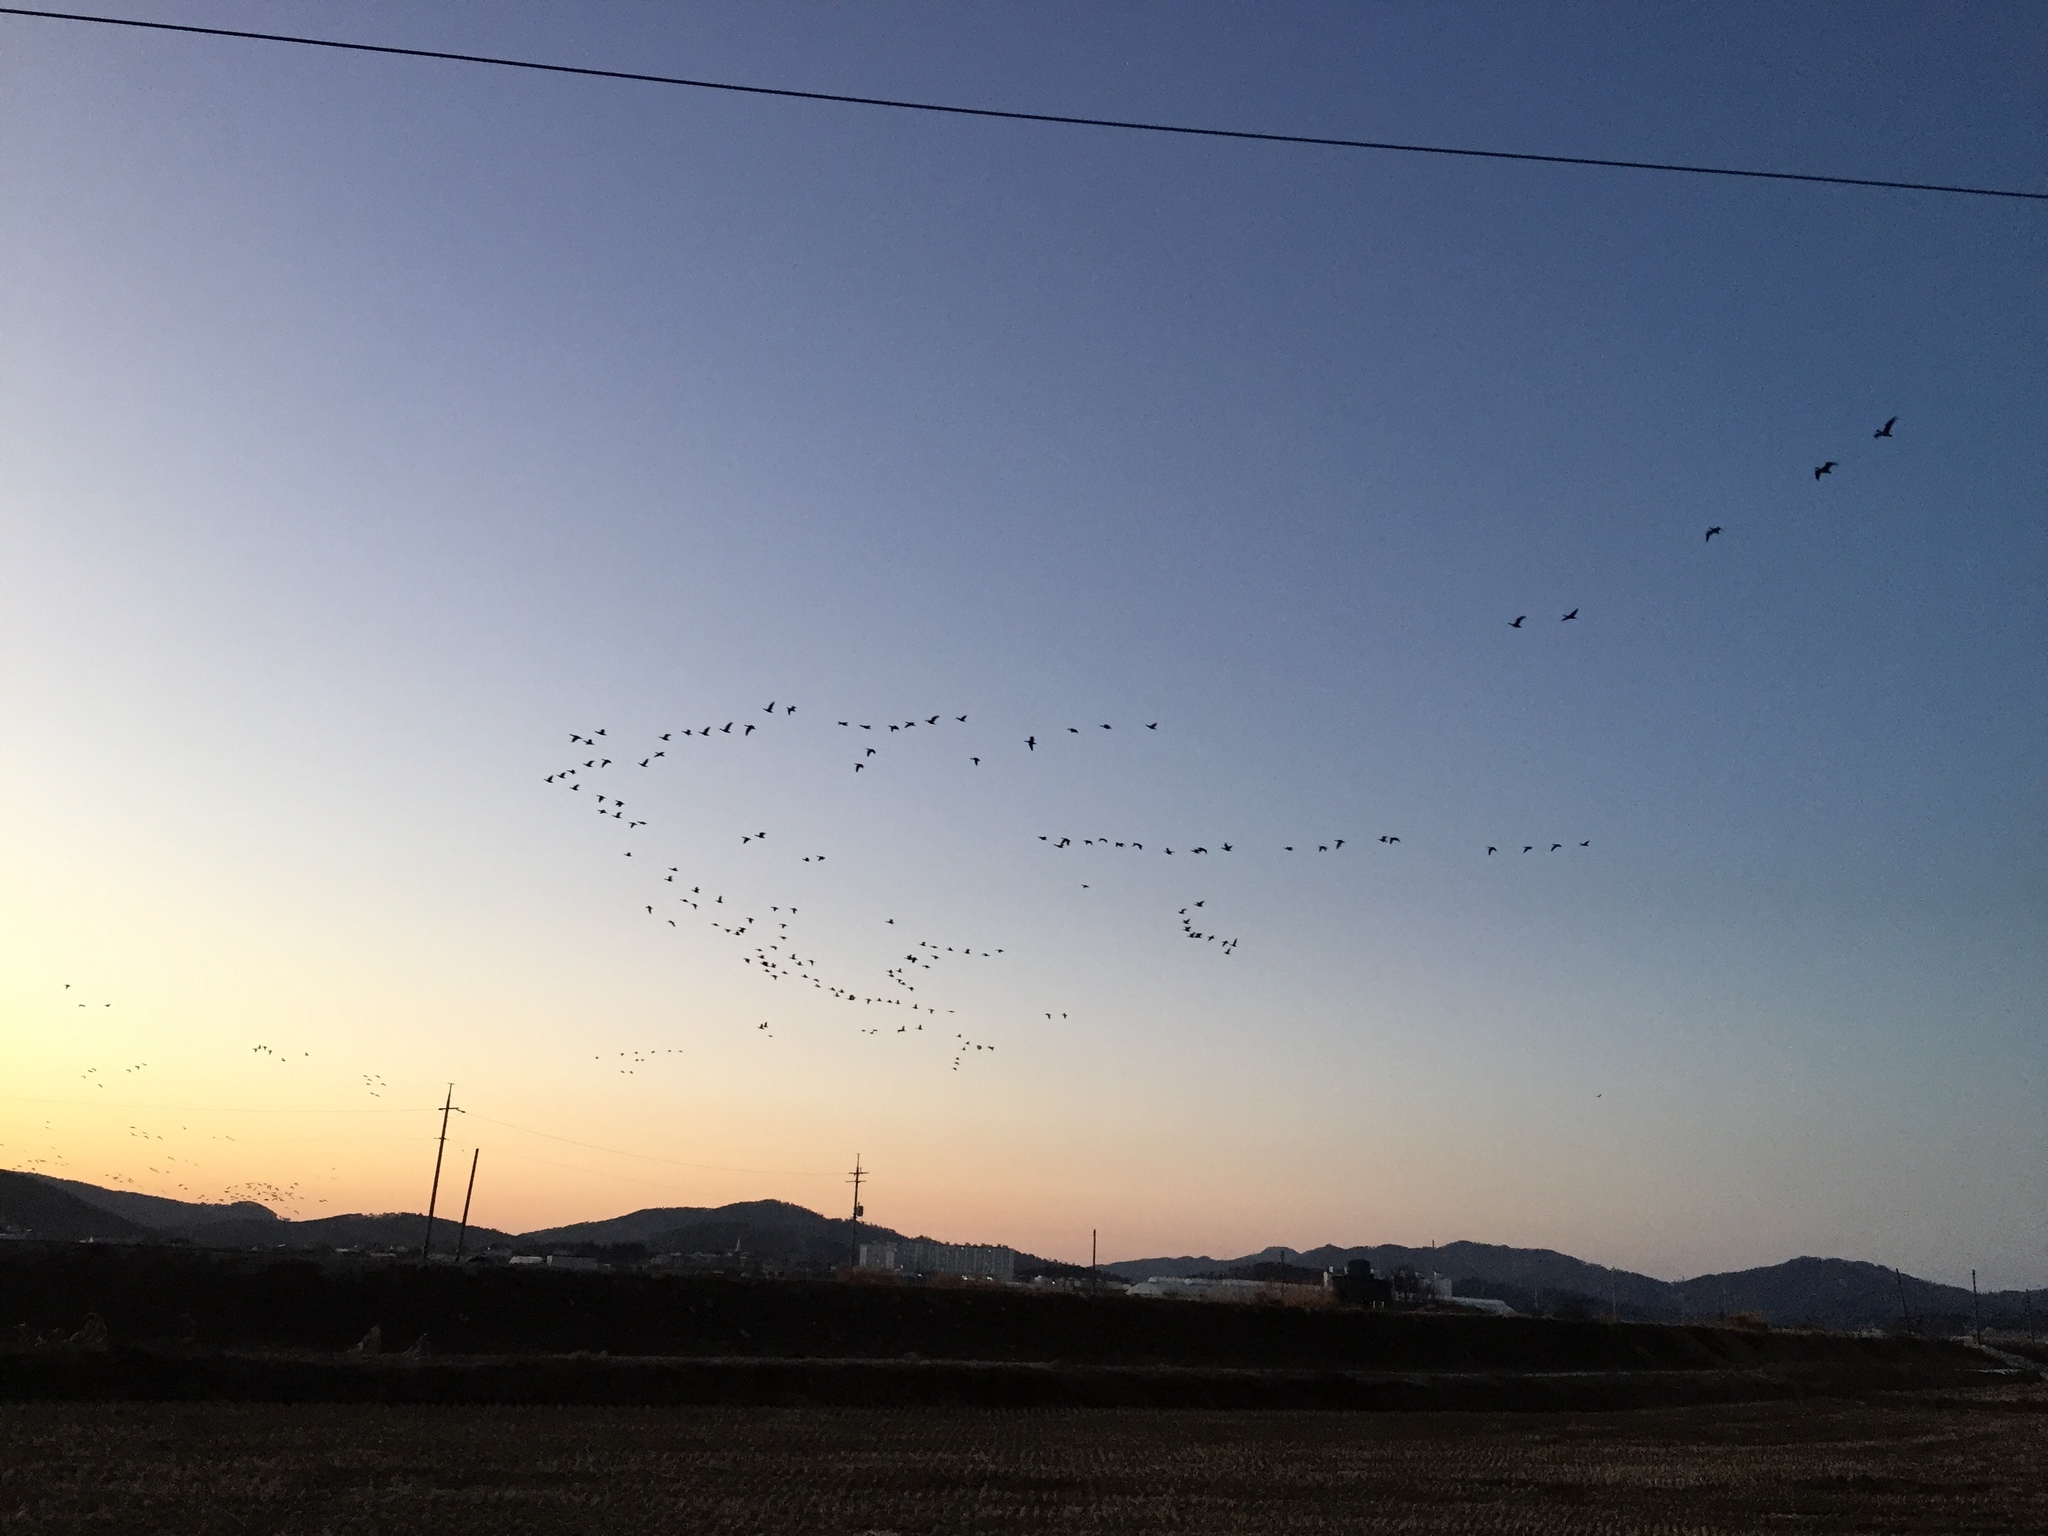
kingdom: Animalia
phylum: Chordata
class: Aves
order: Anseriformes
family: Anatidae
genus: Anser
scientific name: Anser albifrons
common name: Greater white-fronted goose
